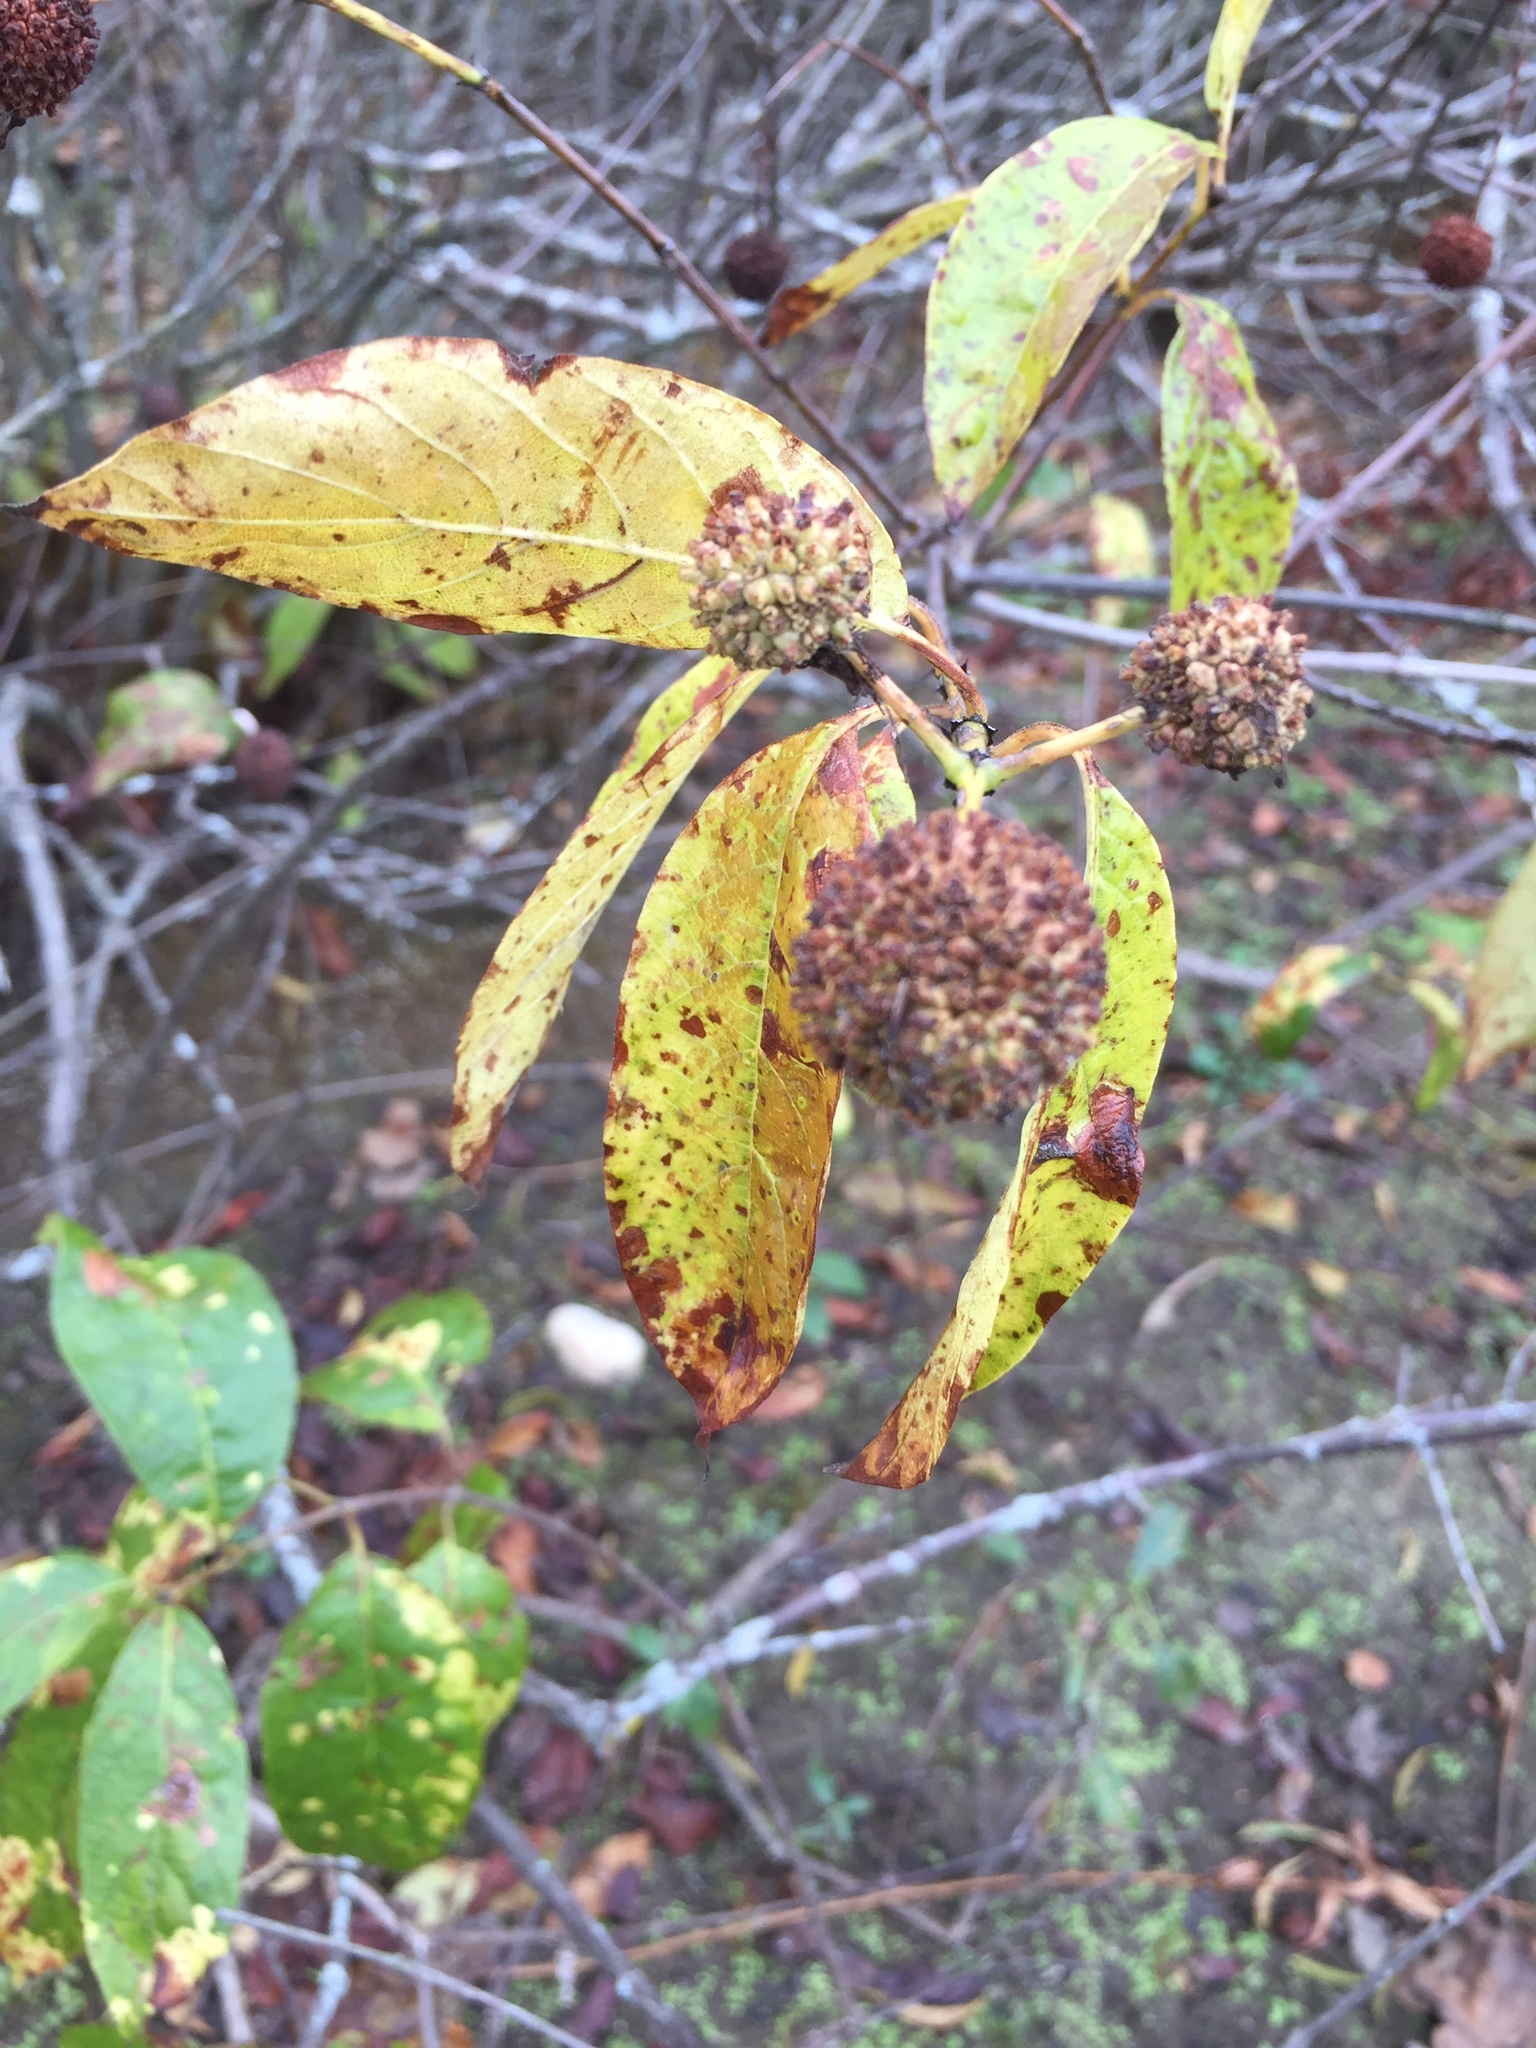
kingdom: Plantae
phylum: Tracheophyta
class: Magnoliopsida
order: Gentianales
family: Rubiaceae
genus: Cephalanthus
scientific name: Cephalanthus occidentalis
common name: Button-willow
